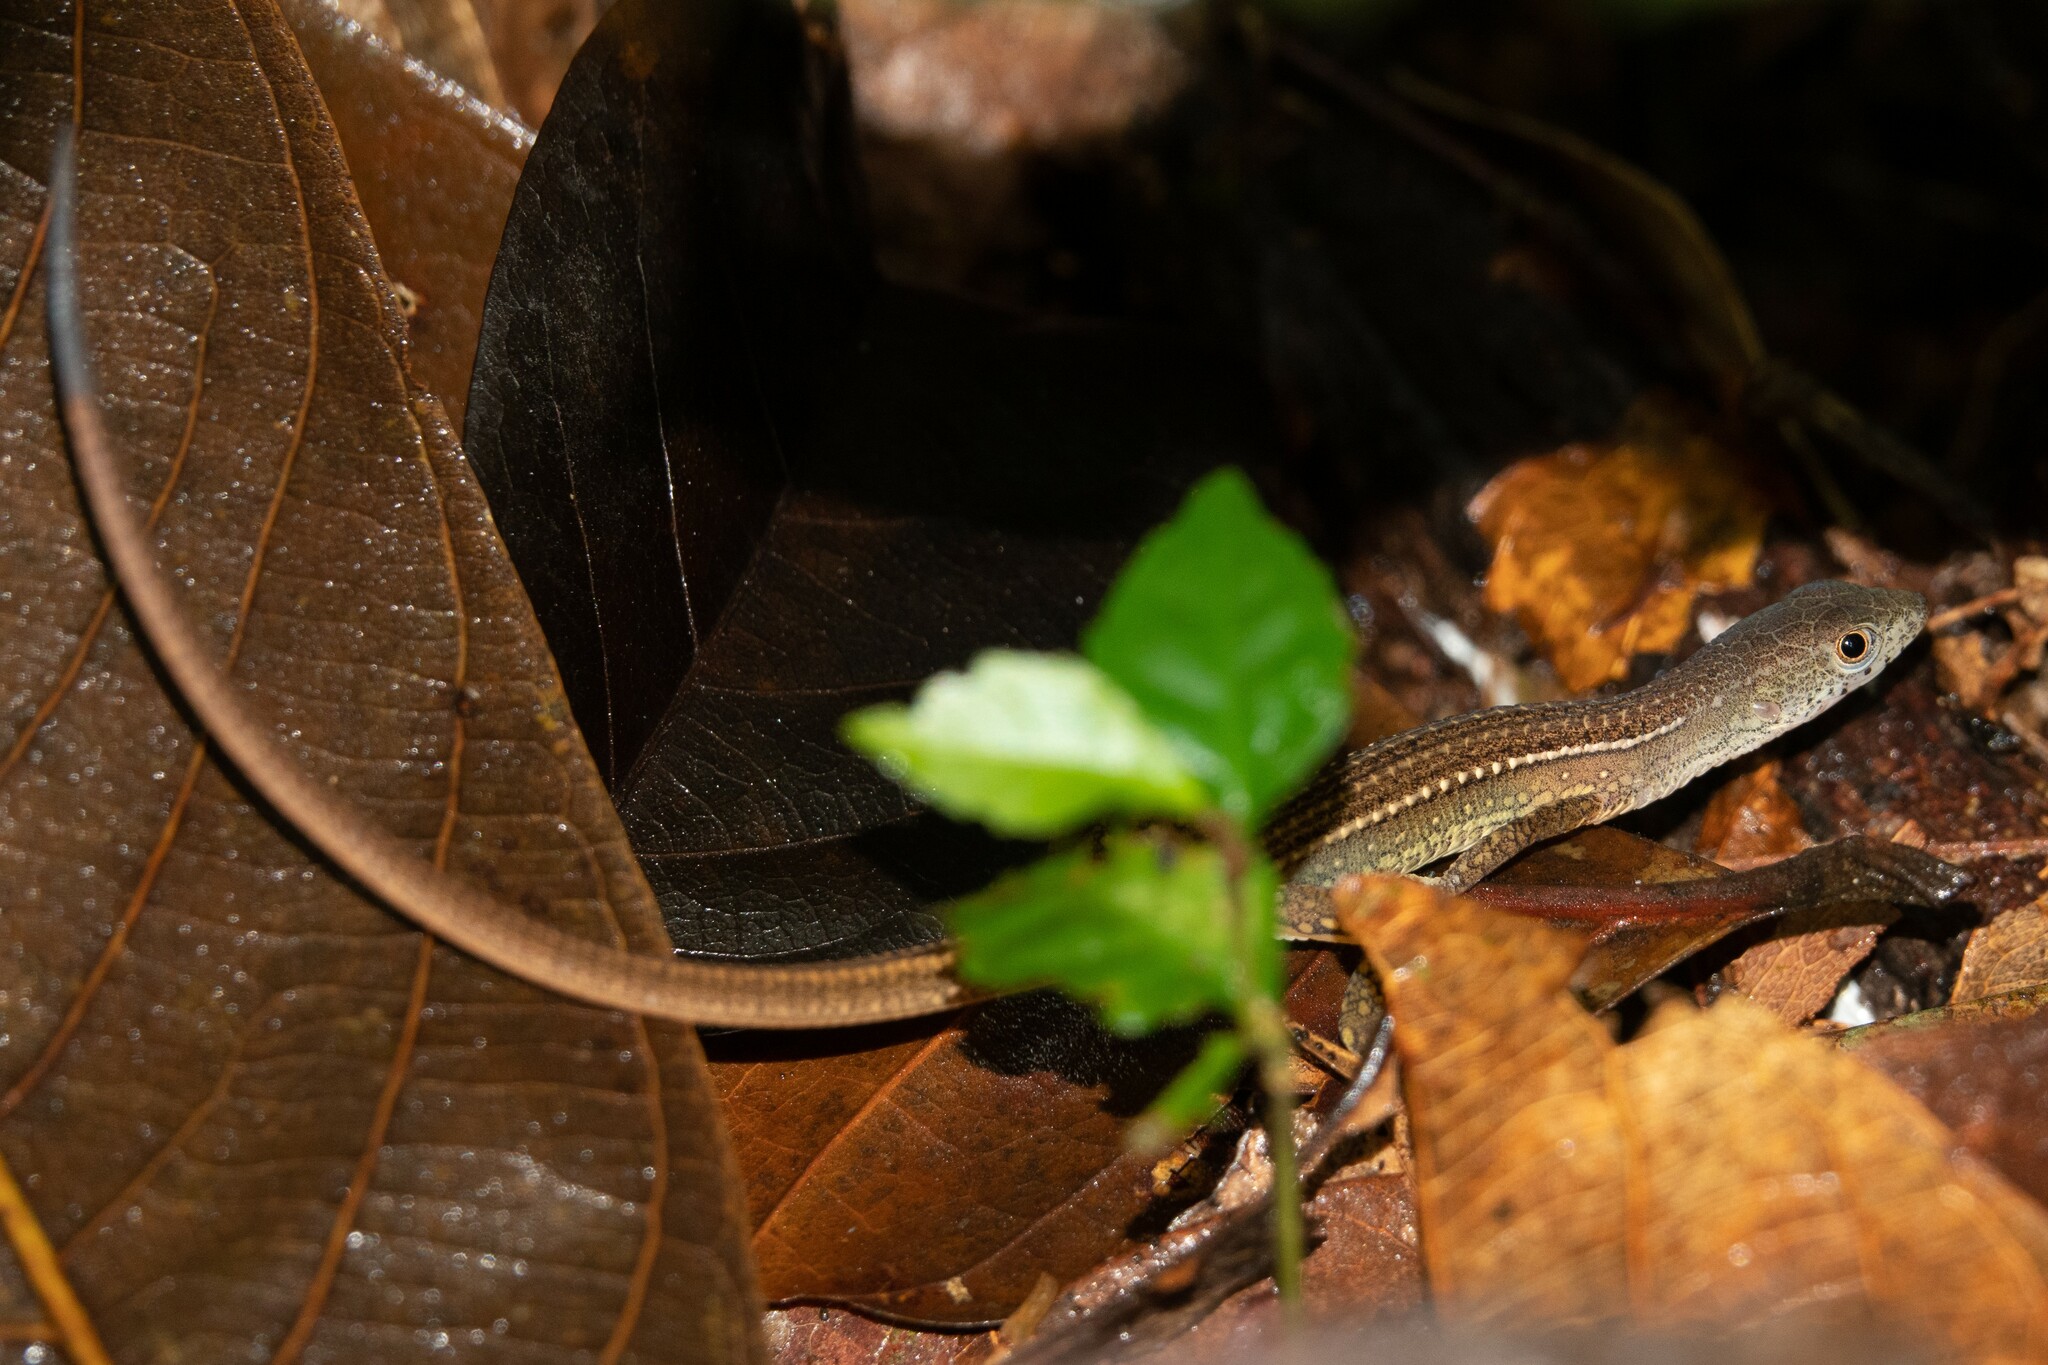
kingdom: Animalia
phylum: Chordata
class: Squamata
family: Gymnophthalmidae
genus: Cercosaura
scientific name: Cercosaura bassleri
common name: Ocellated tegu
